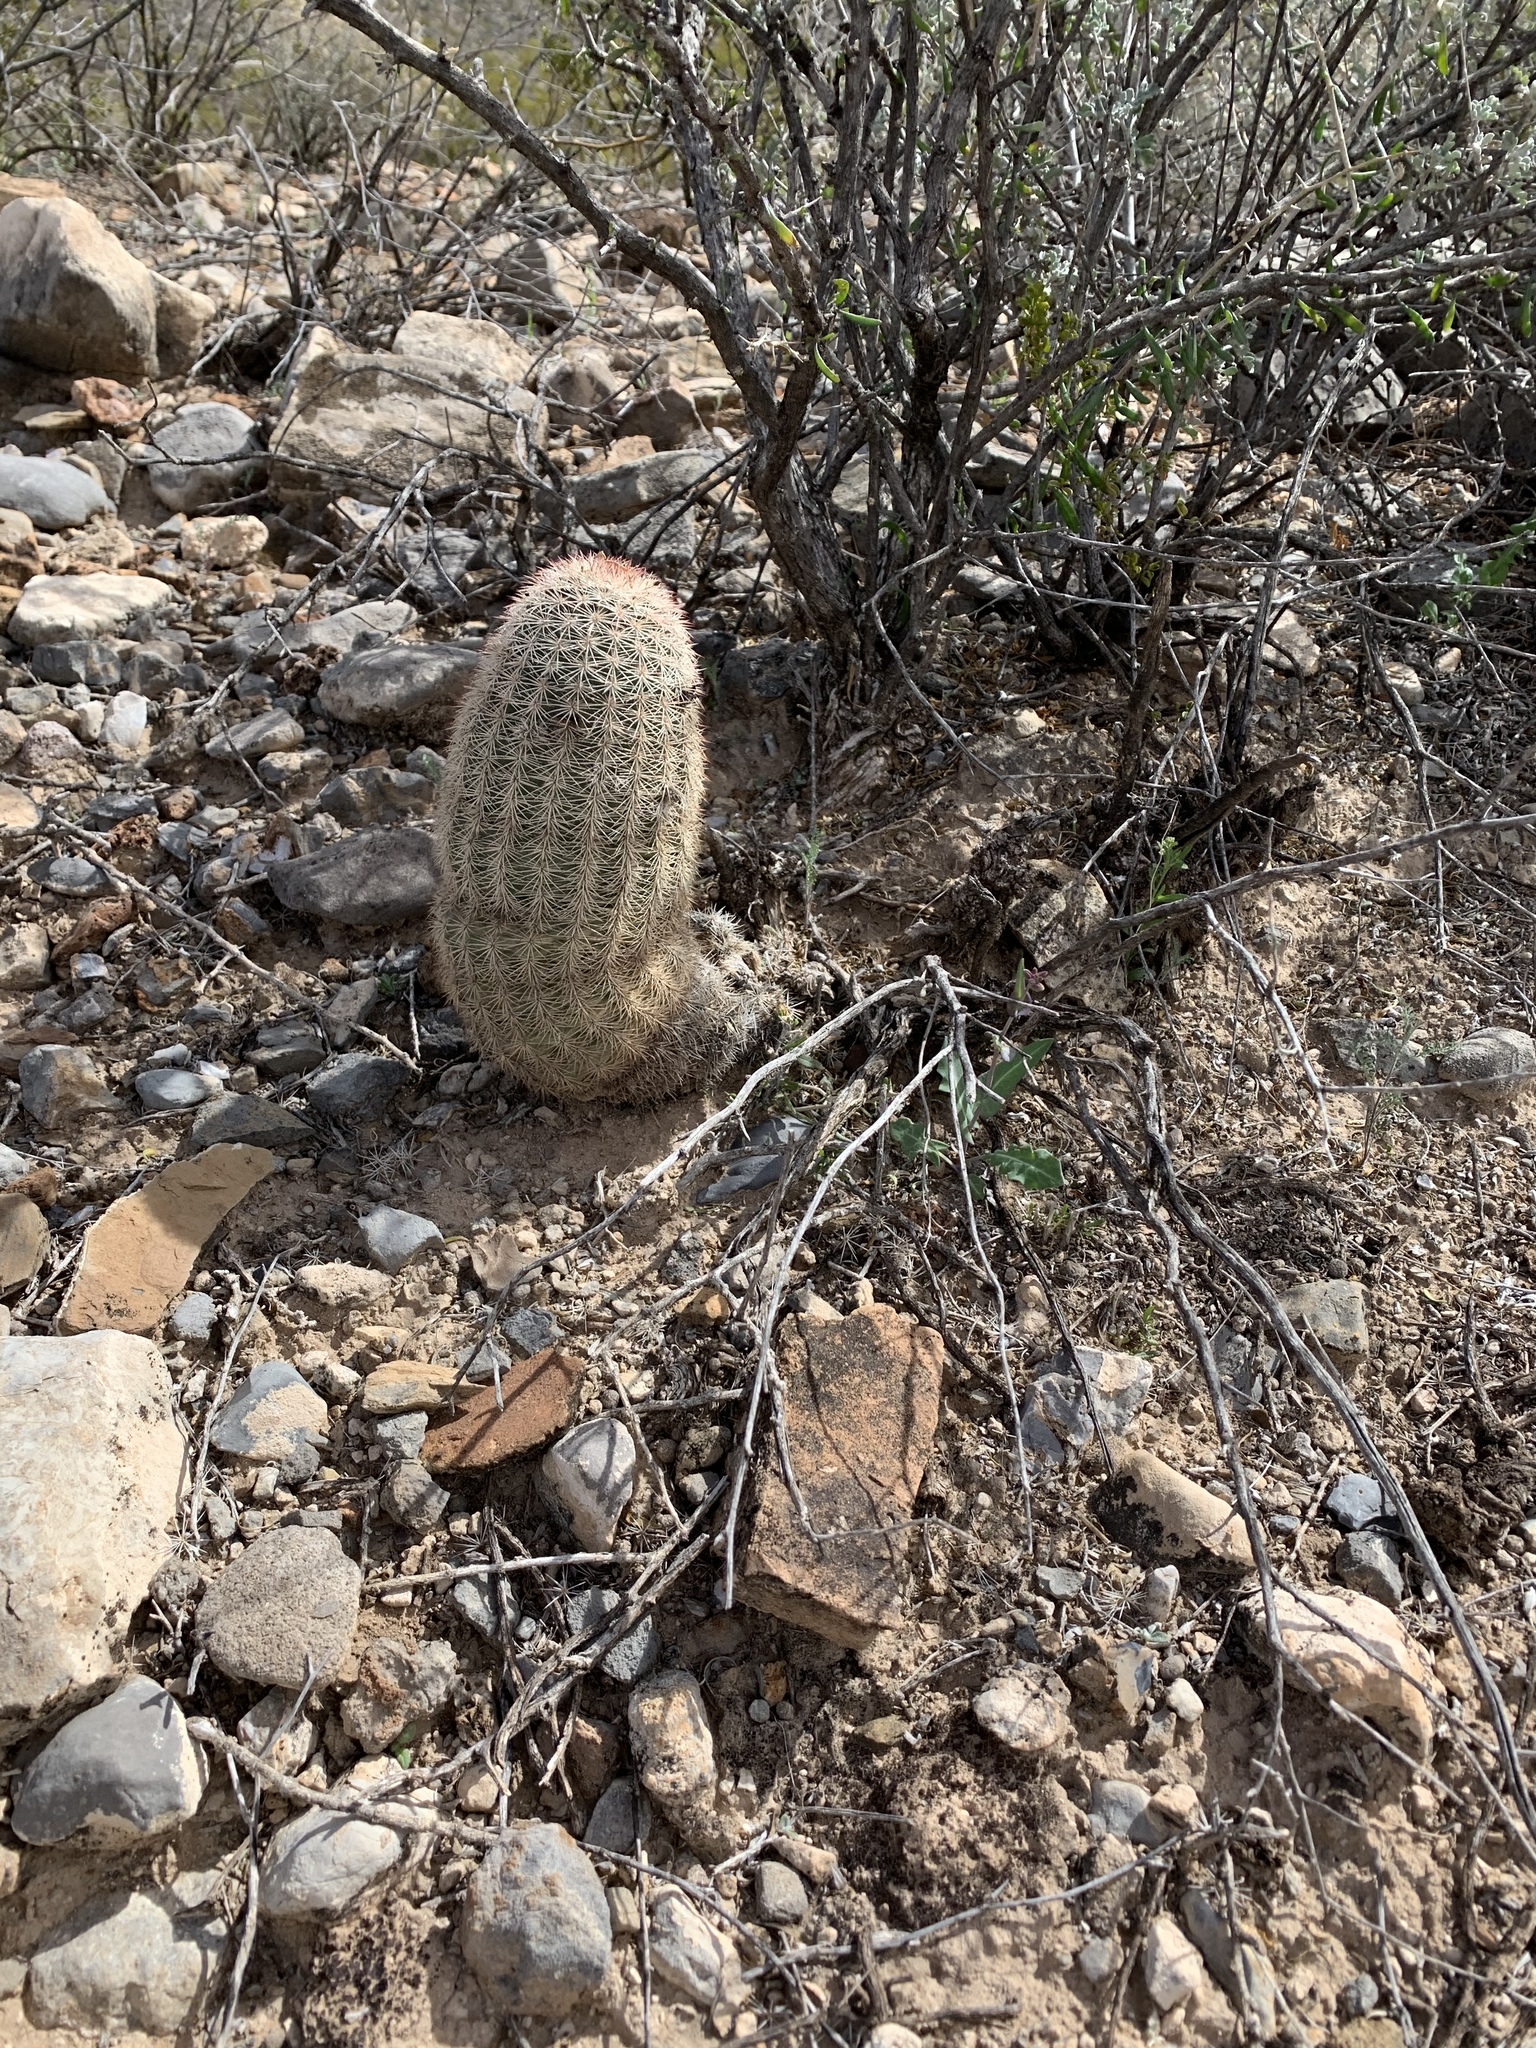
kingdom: Plantae
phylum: Tracheophyta
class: Magnoliopsida
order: Caryophyllales
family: Cactaceae
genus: Echinocereus
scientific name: Echinocereus dasyacanthus
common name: Spiny hedgehog cactus
